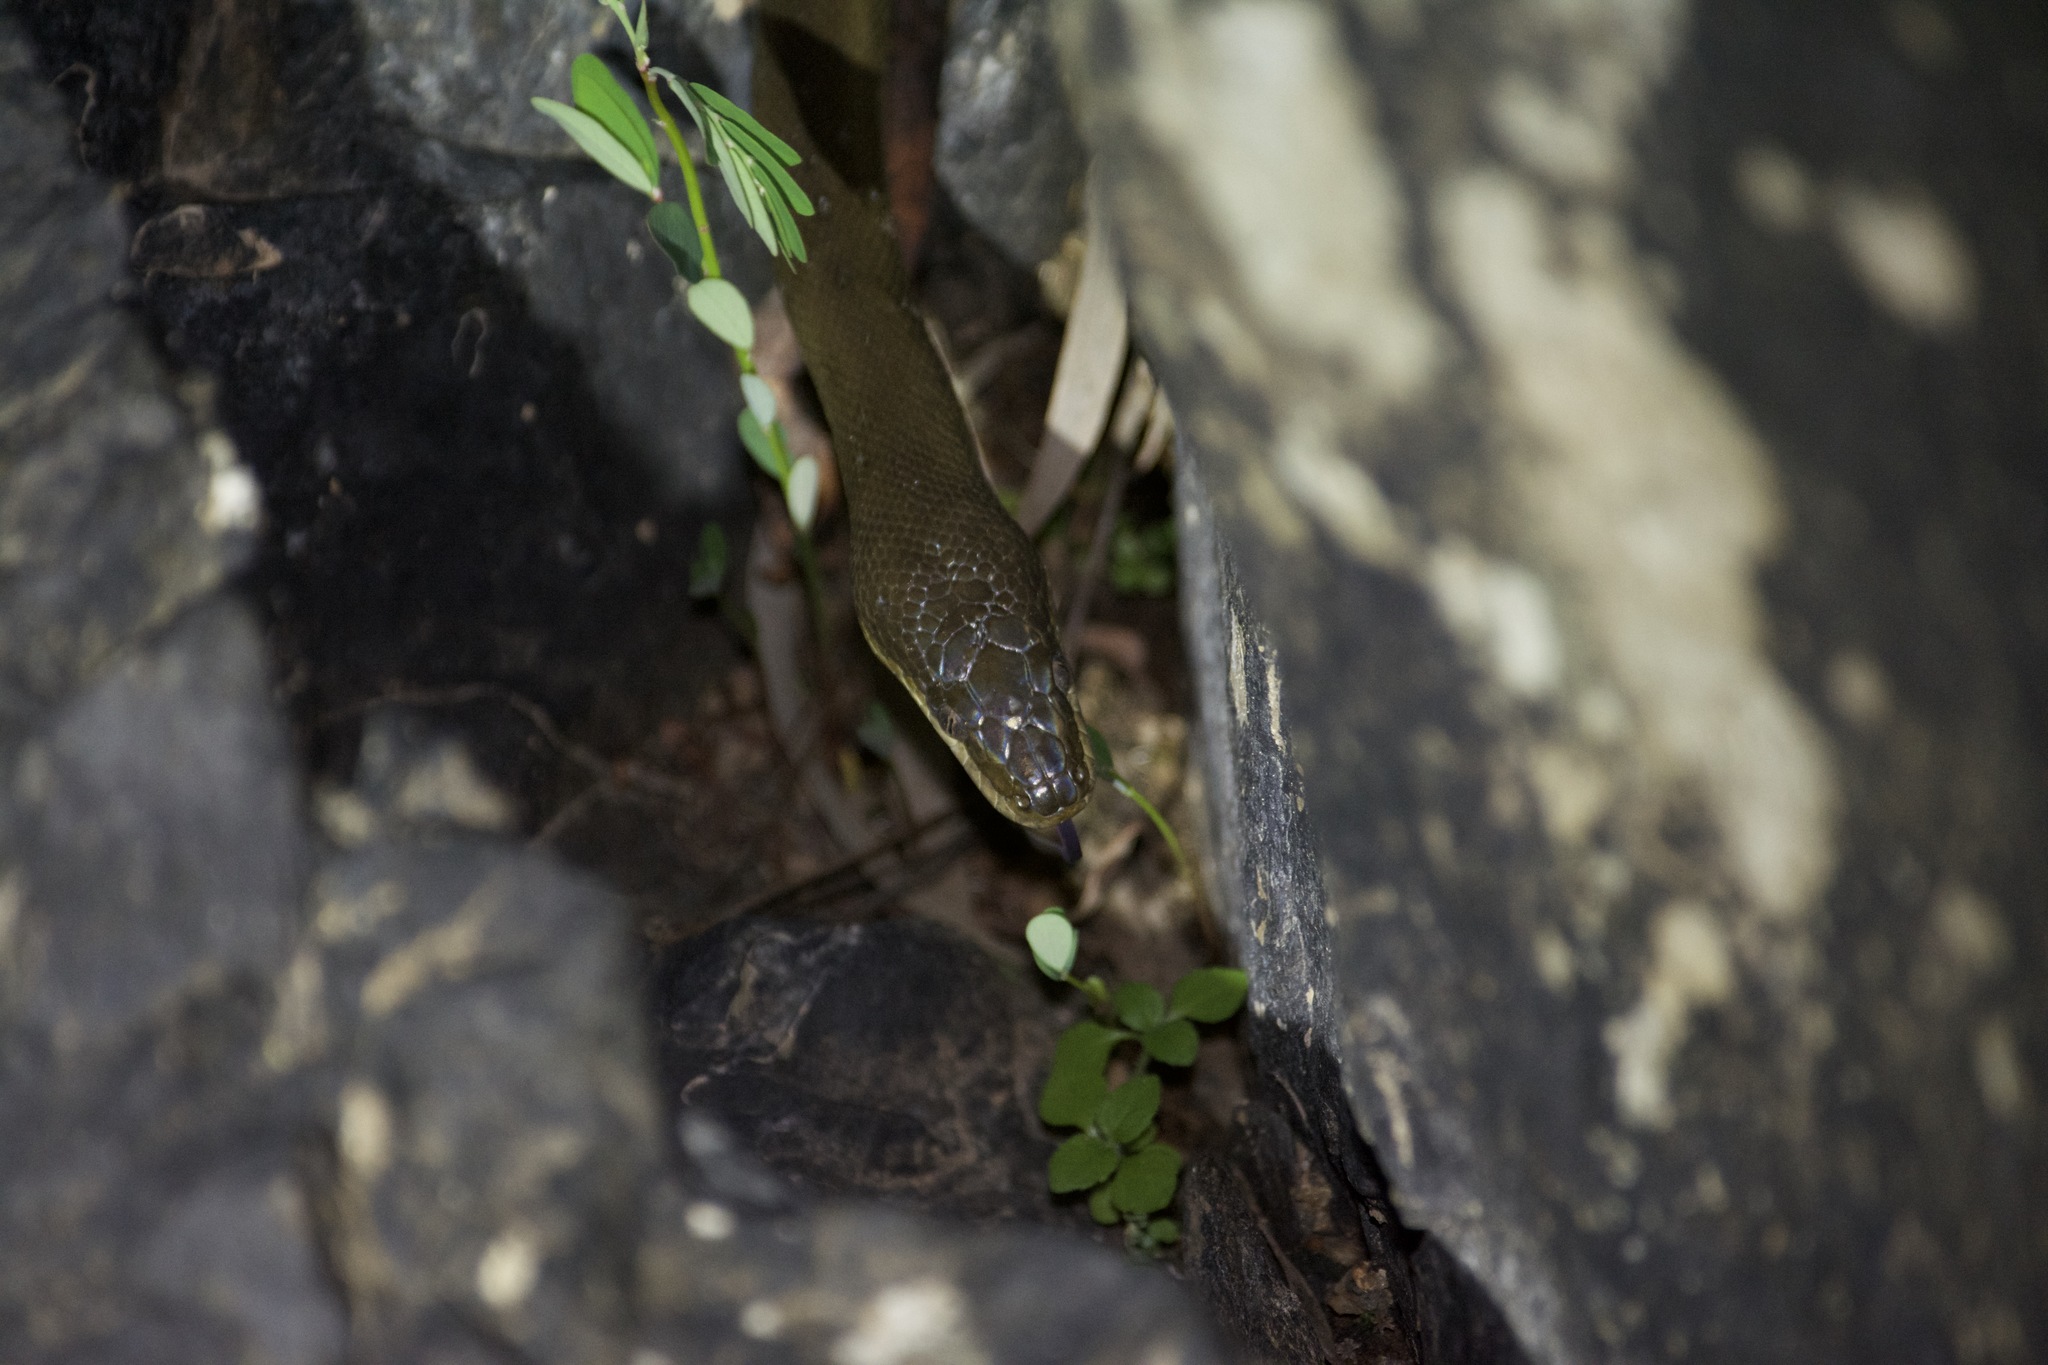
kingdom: Animalia
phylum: Chordata
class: Squamata
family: Pythonidae
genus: Liasis
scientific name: Liasis fuscus
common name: Brown water python
